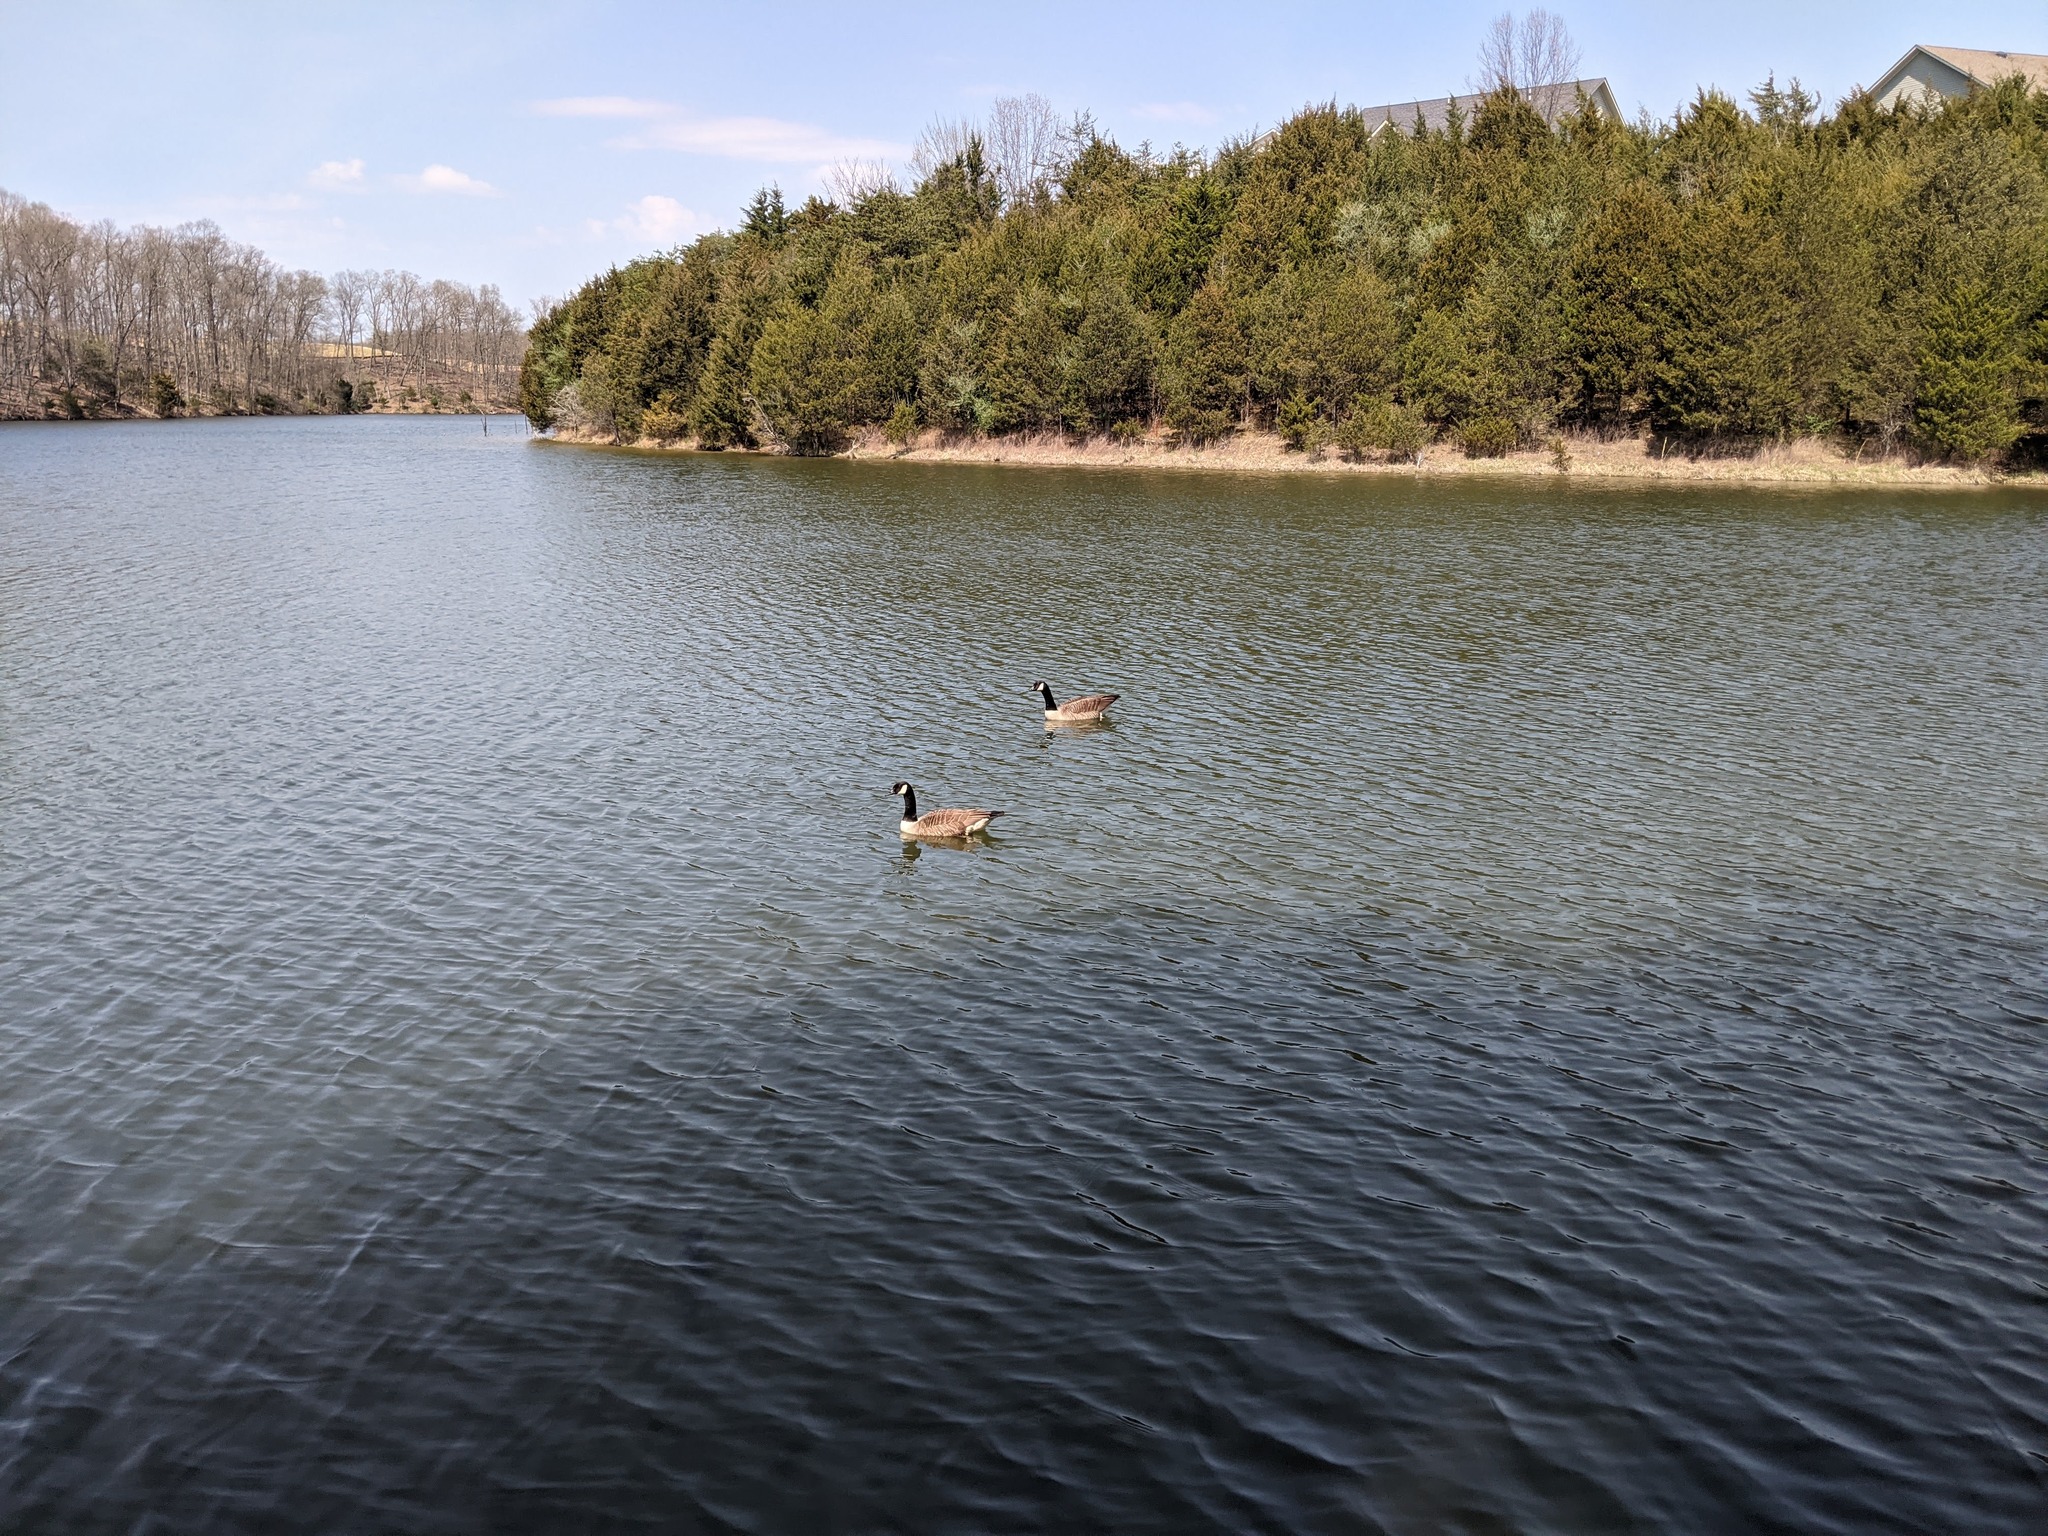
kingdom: Animalia
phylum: Chordata
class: Aves
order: Anseriformes
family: Anatidae
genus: Branta
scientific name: Branta canadensis
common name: Canada goose
